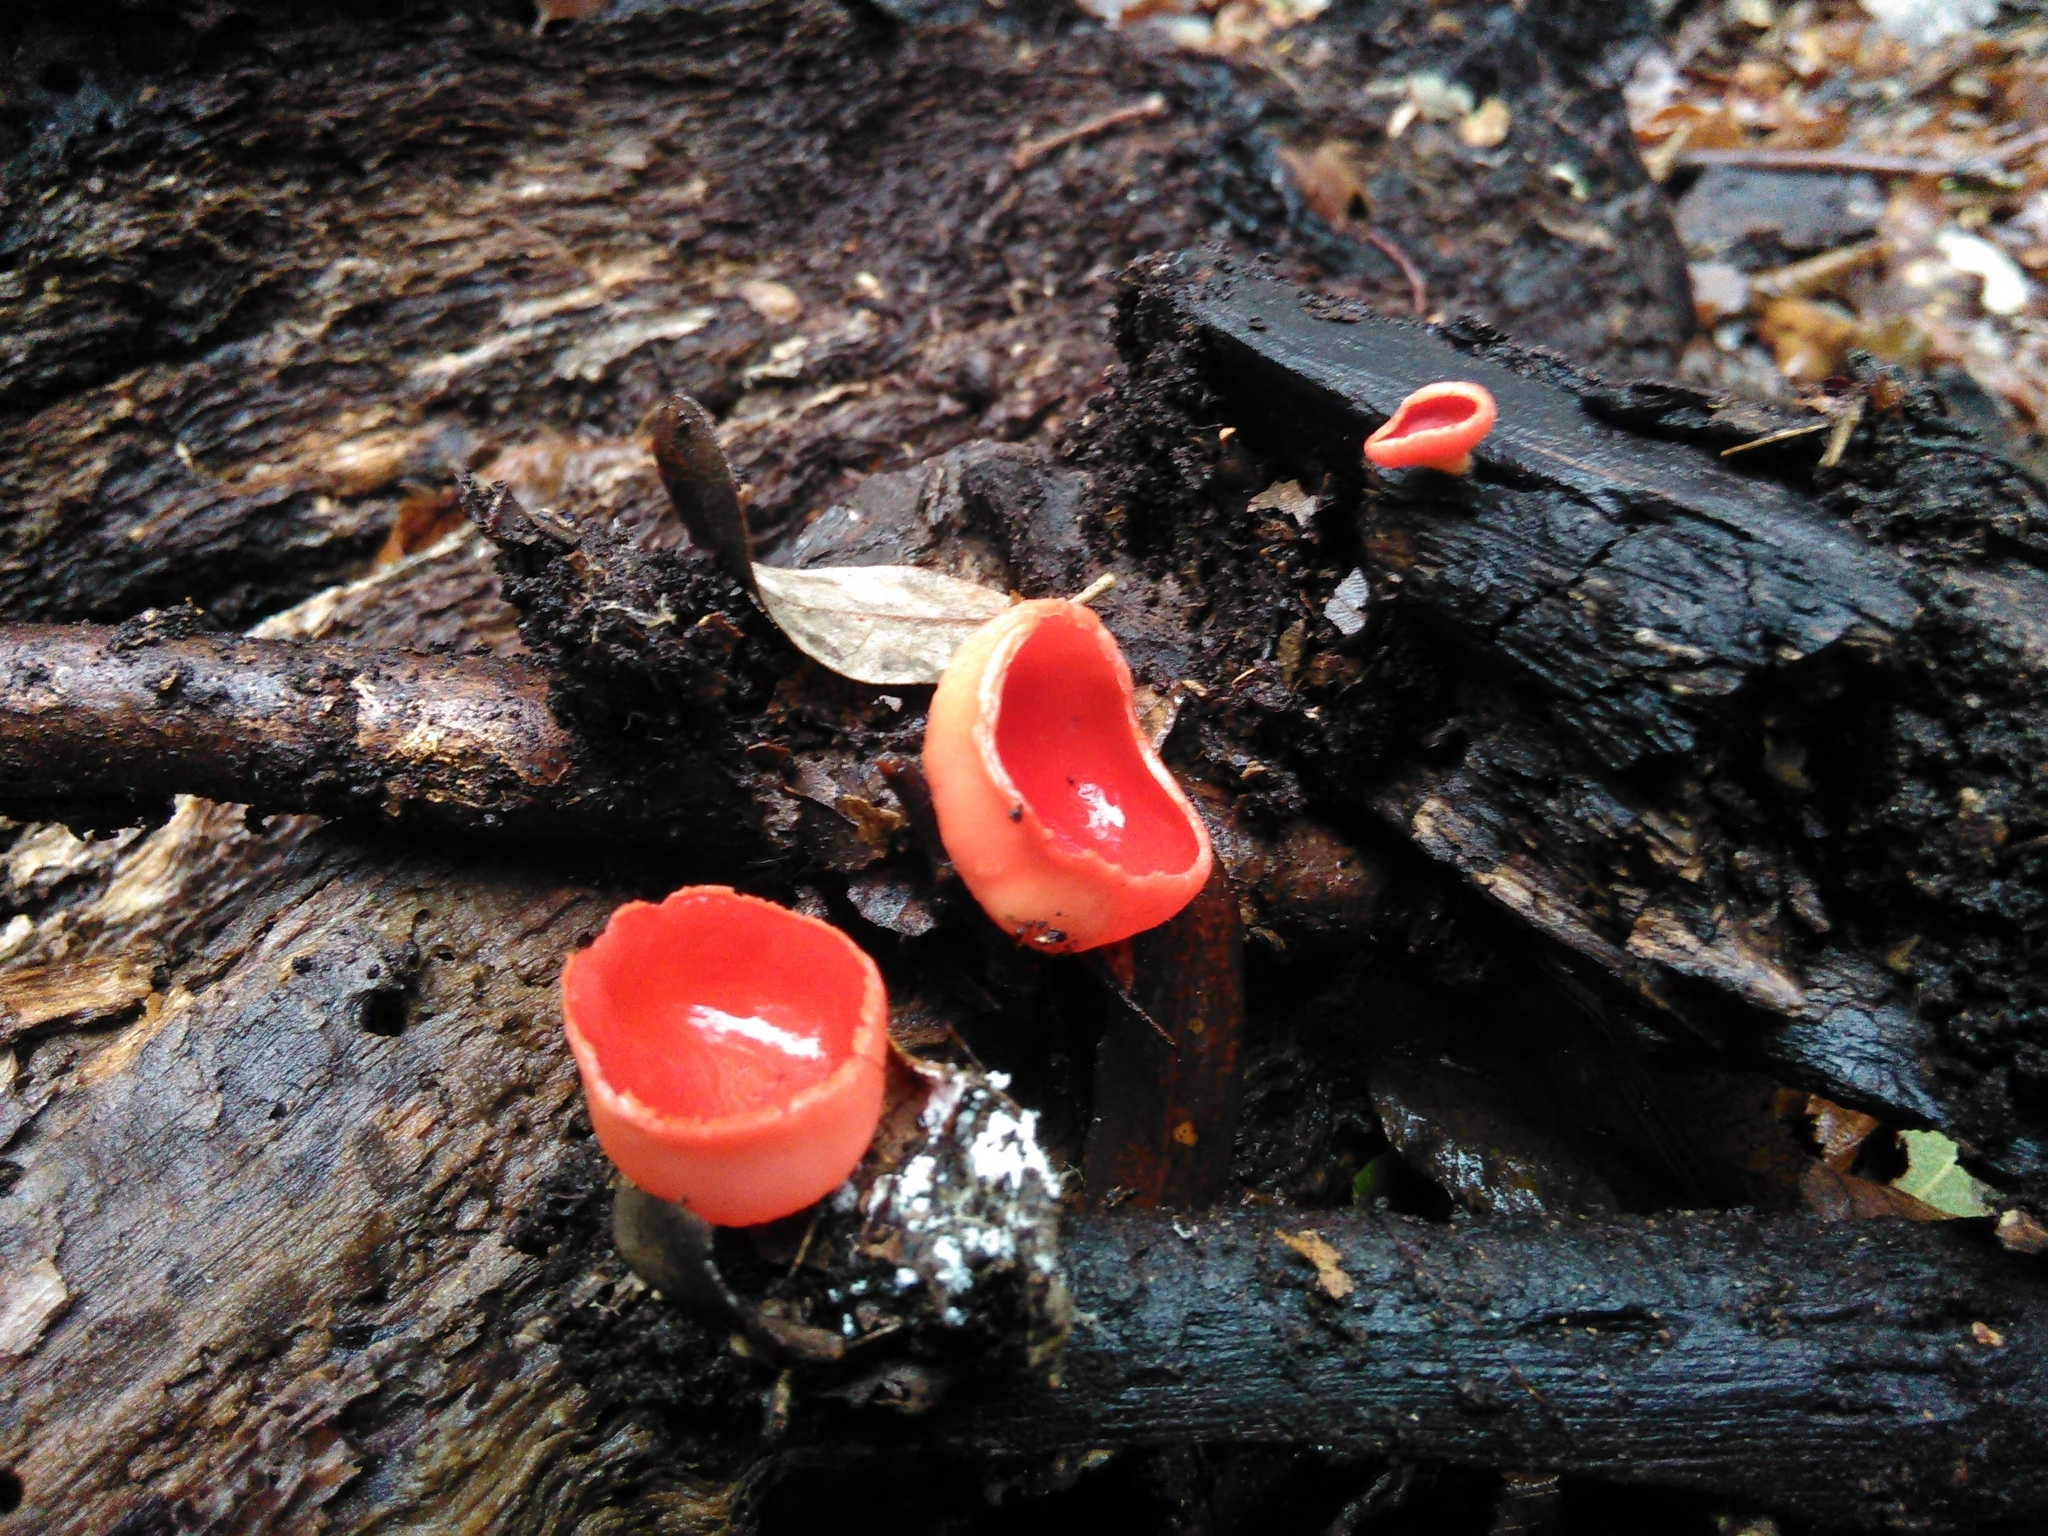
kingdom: Fungi
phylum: Ascomycota
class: Pezizomycetes
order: Pezizales
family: Sarcoscyphaceae
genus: Sarcoscypha
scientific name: Sarcoscypha coccinea
